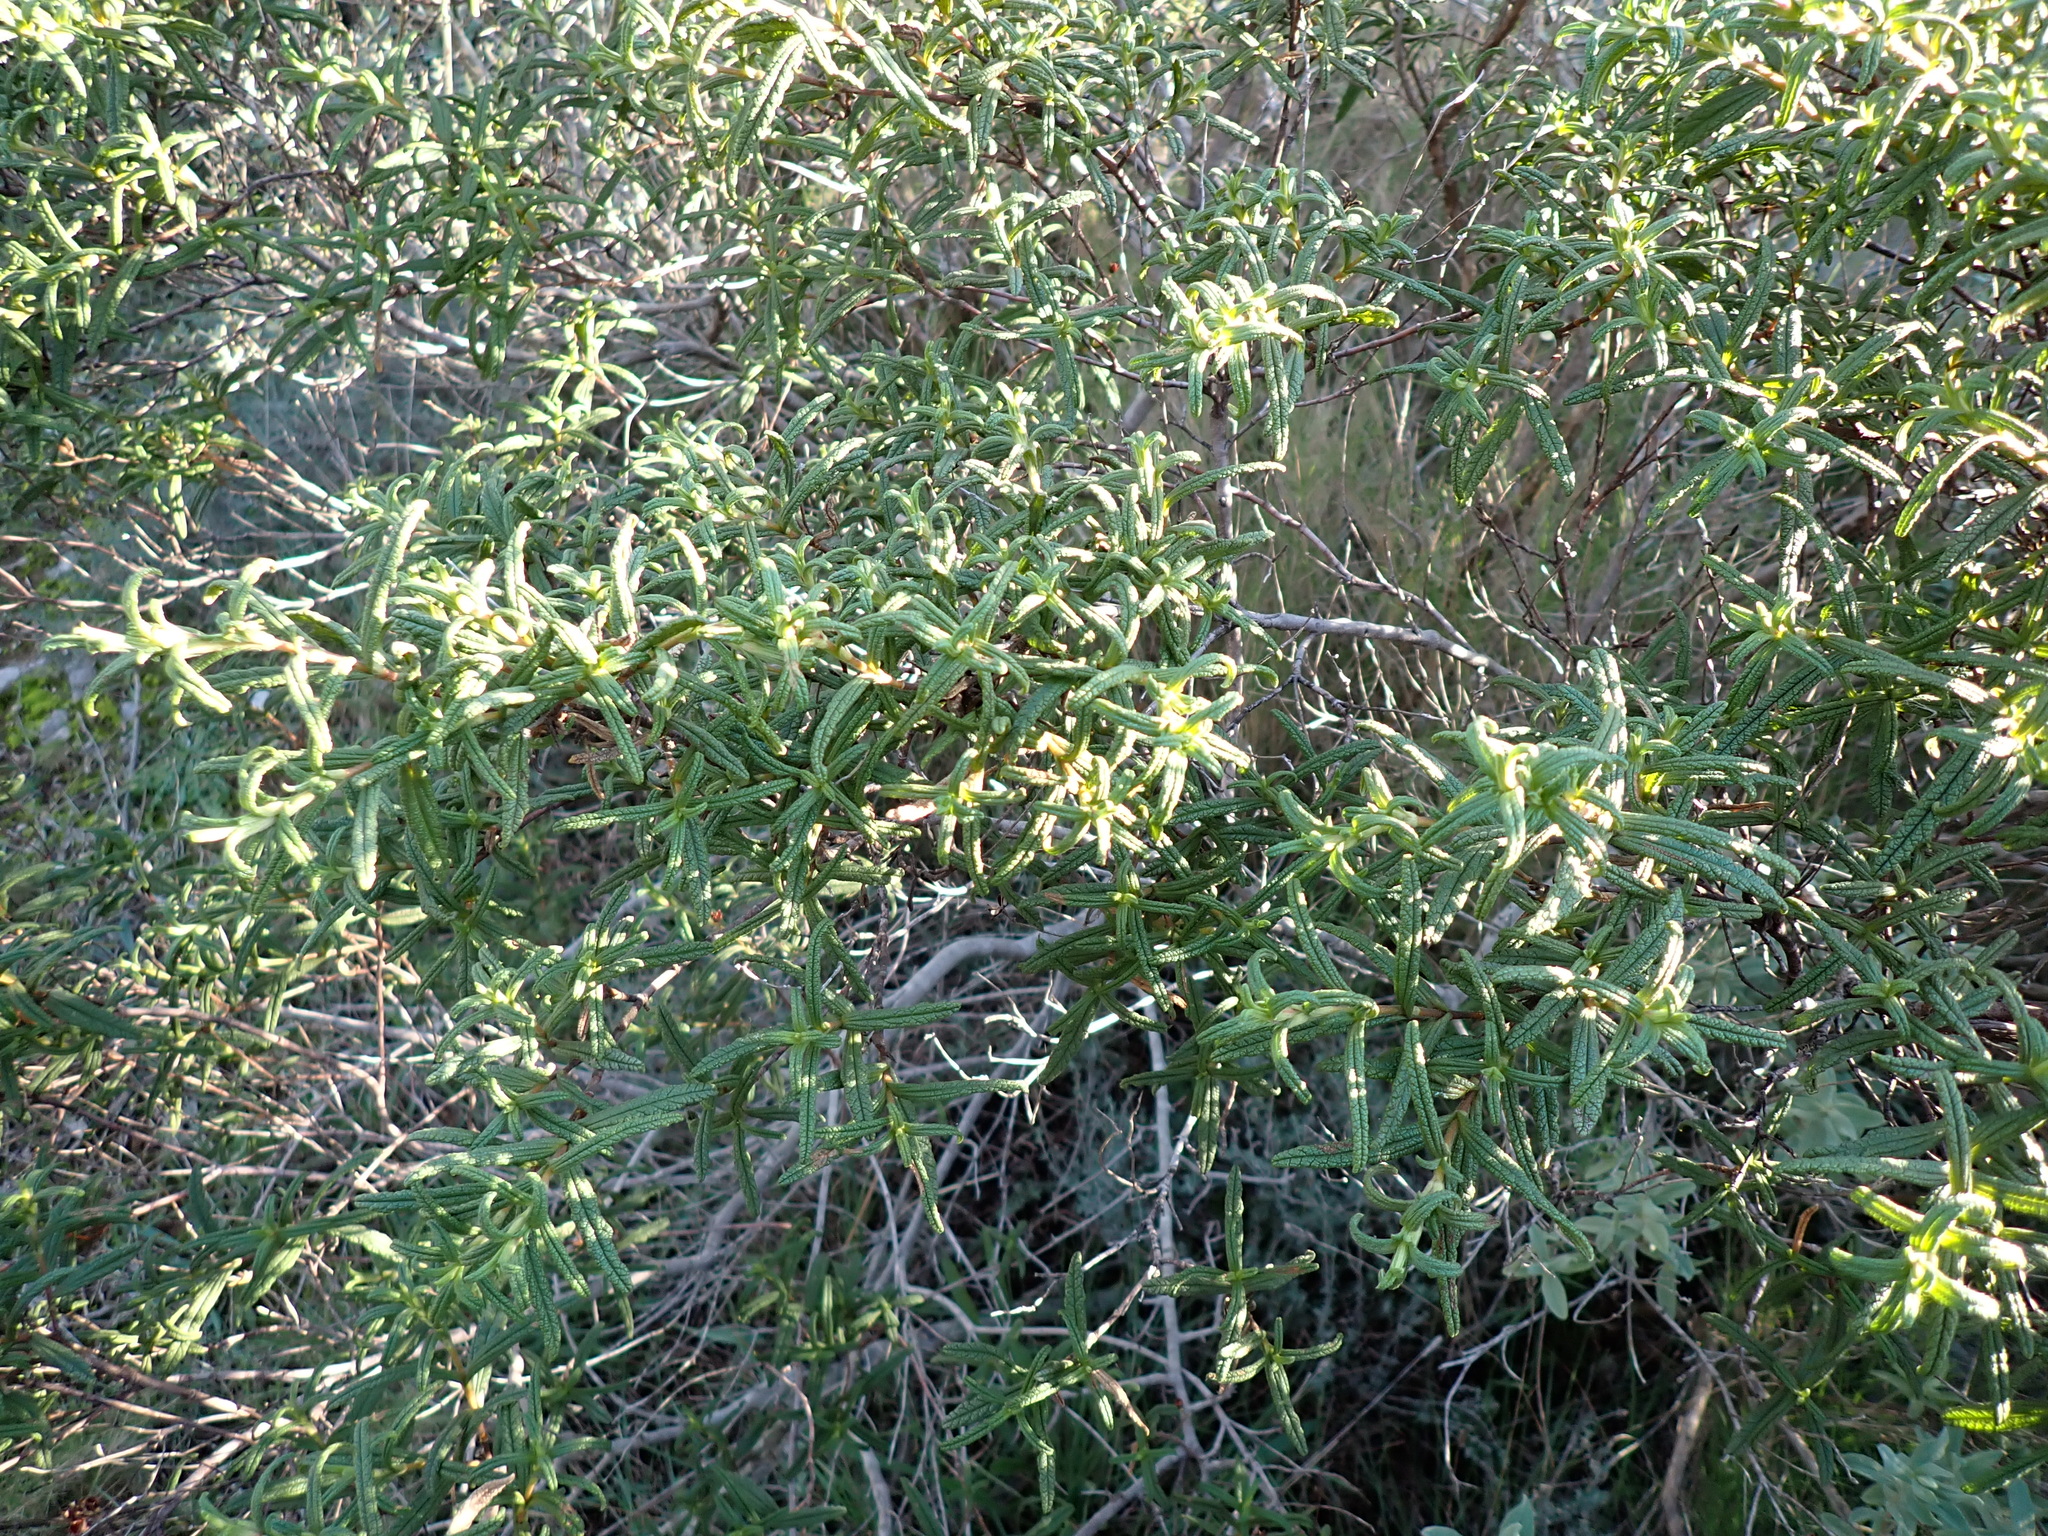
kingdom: Plantae
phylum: Tracheophyta
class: Magnoliopsida
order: Malvales
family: Cistaceae
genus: Cistus
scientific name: Cistus monspeliensis
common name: Montpelier cistus
